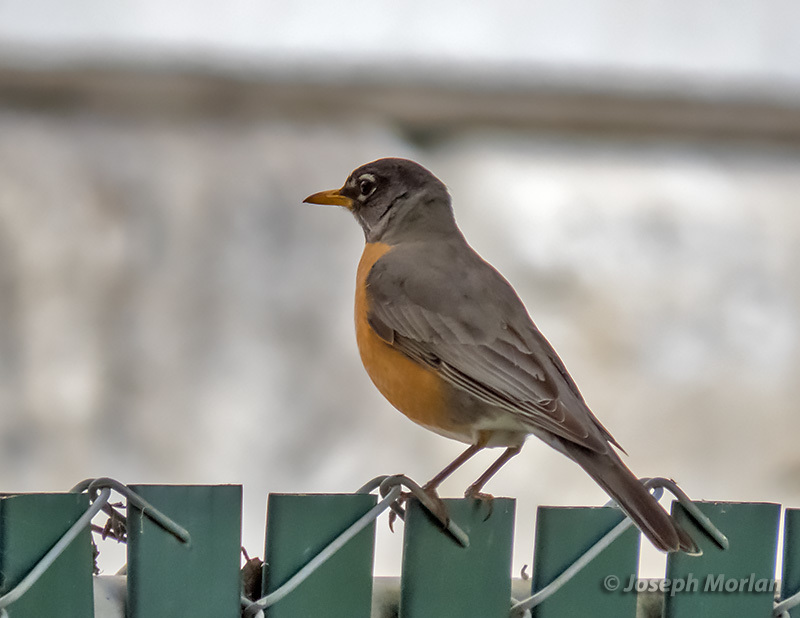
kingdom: Animalia
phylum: Chordata
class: Aves
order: Passeriformes
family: Turdidae
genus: Turdus
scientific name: Turdus migratorius
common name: American robin
